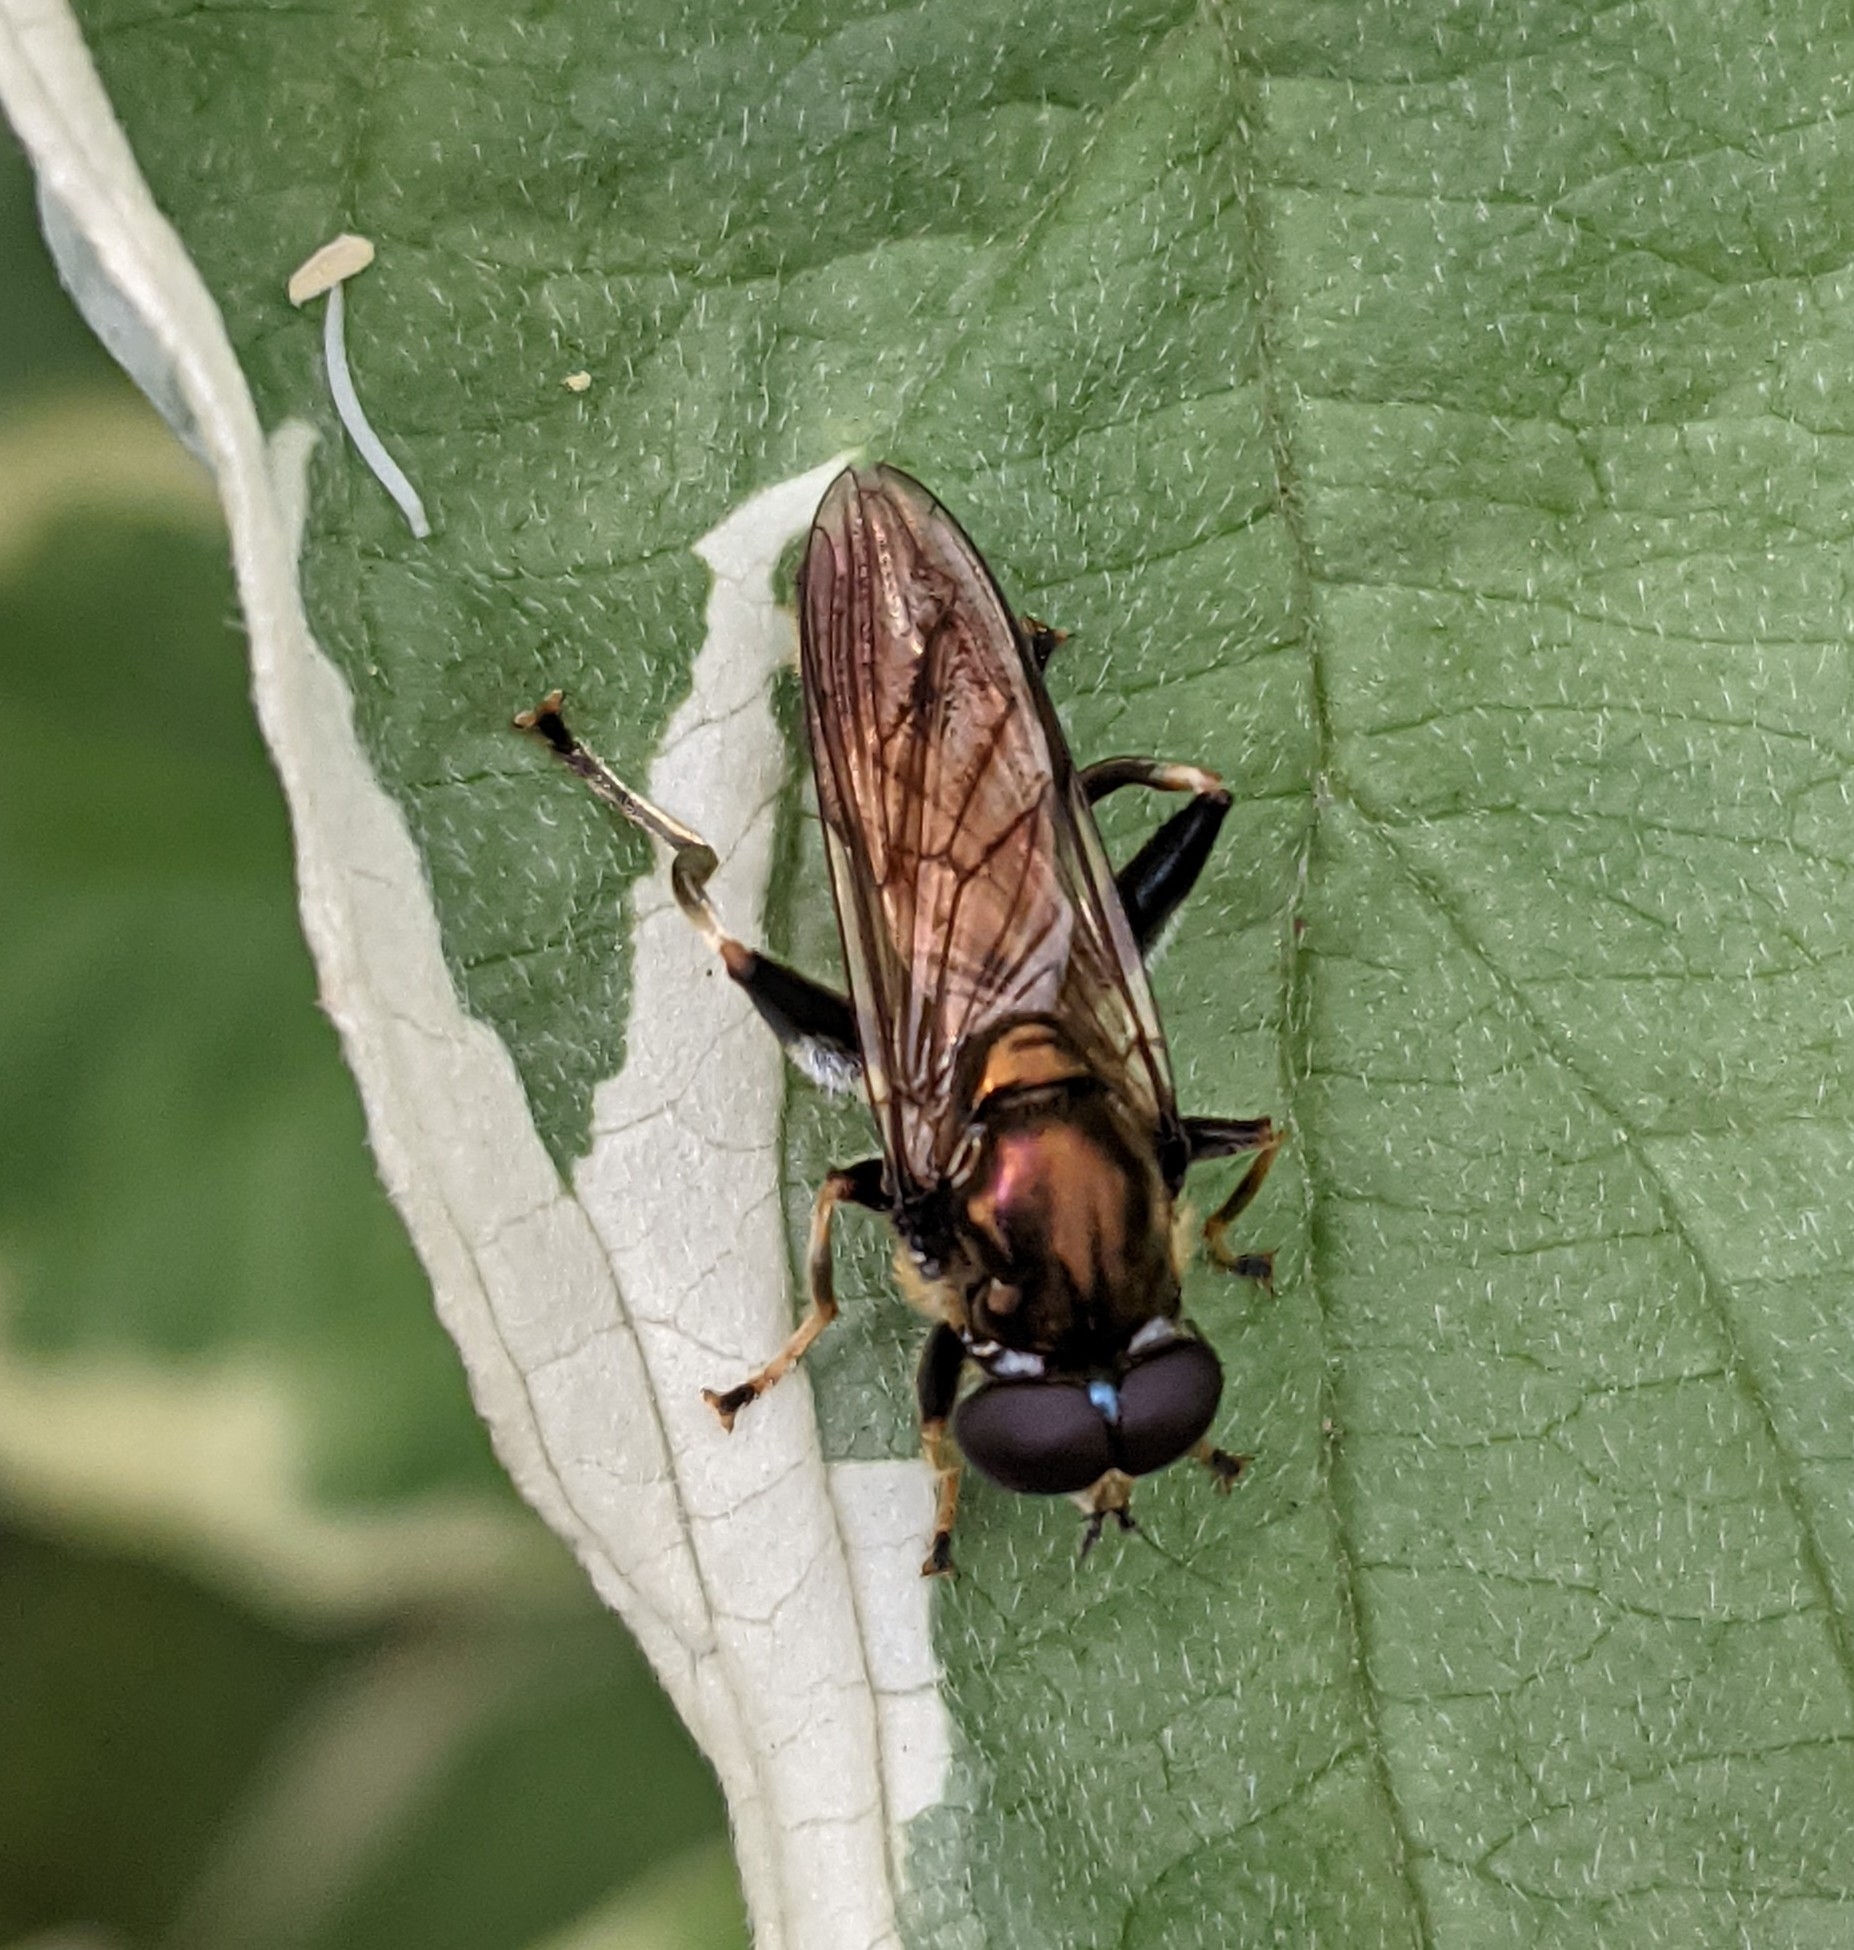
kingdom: Animalia
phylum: Arthropoda
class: Insecta
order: Diptera
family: Syrphidae
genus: Xylota
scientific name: Xylota segnis
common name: Brown-toed forest fly
